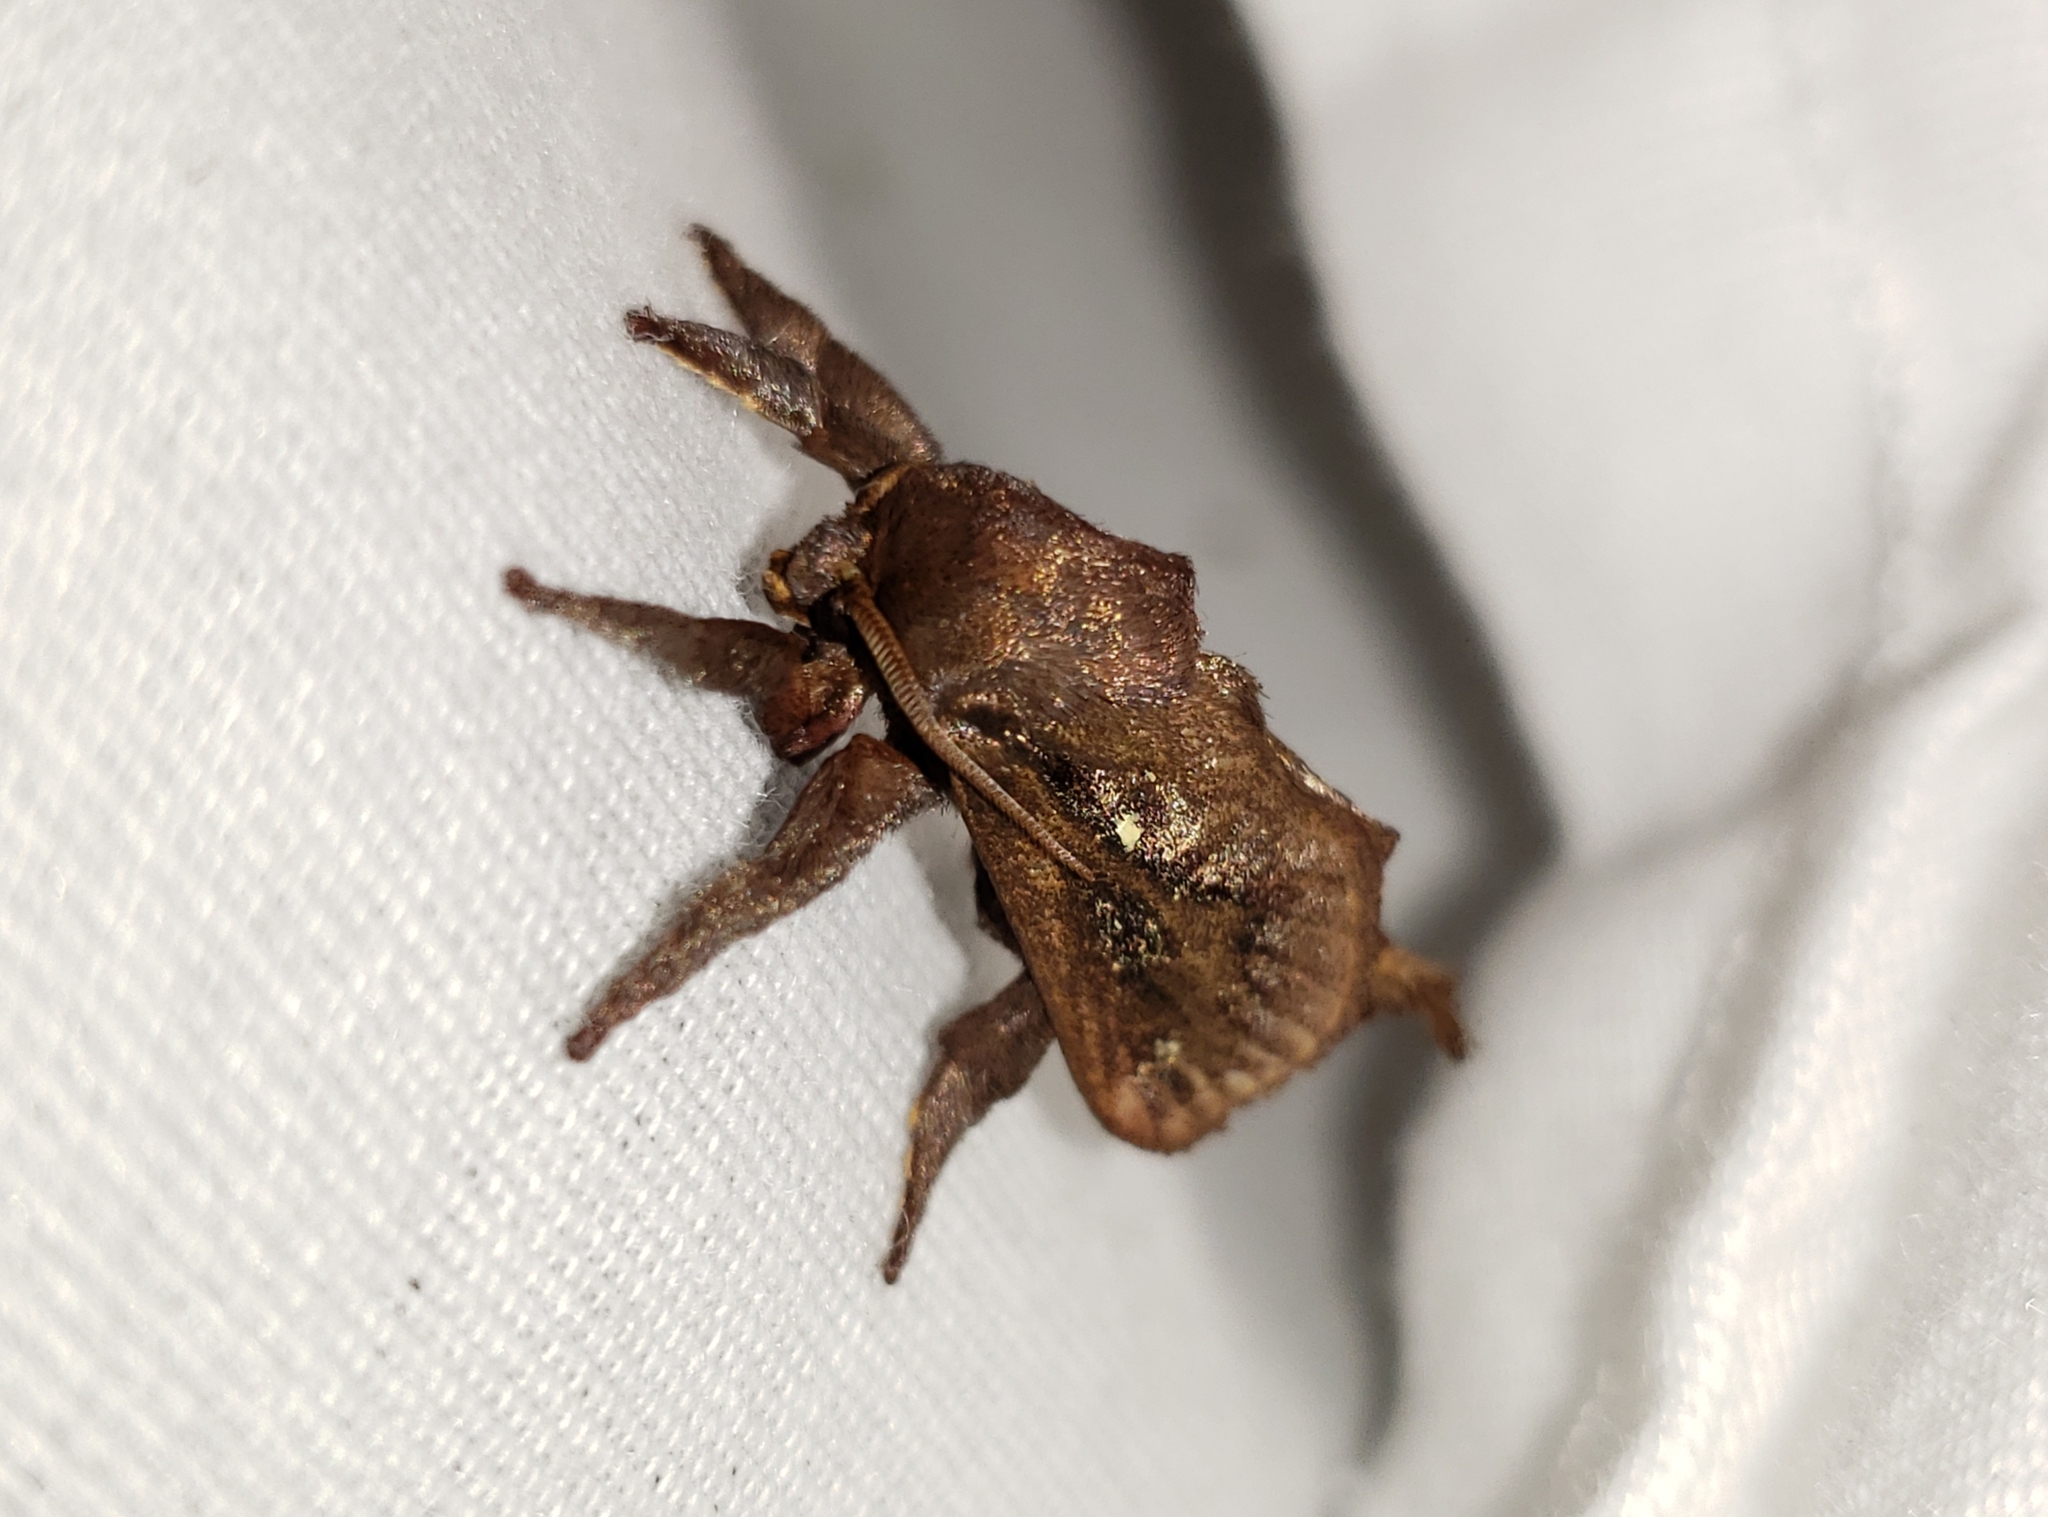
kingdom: Animalia
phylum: Arthropoda
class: Insecta
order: Lepidoptera
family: Limacodidae
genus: Acharia
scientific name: Acharia stimulea
